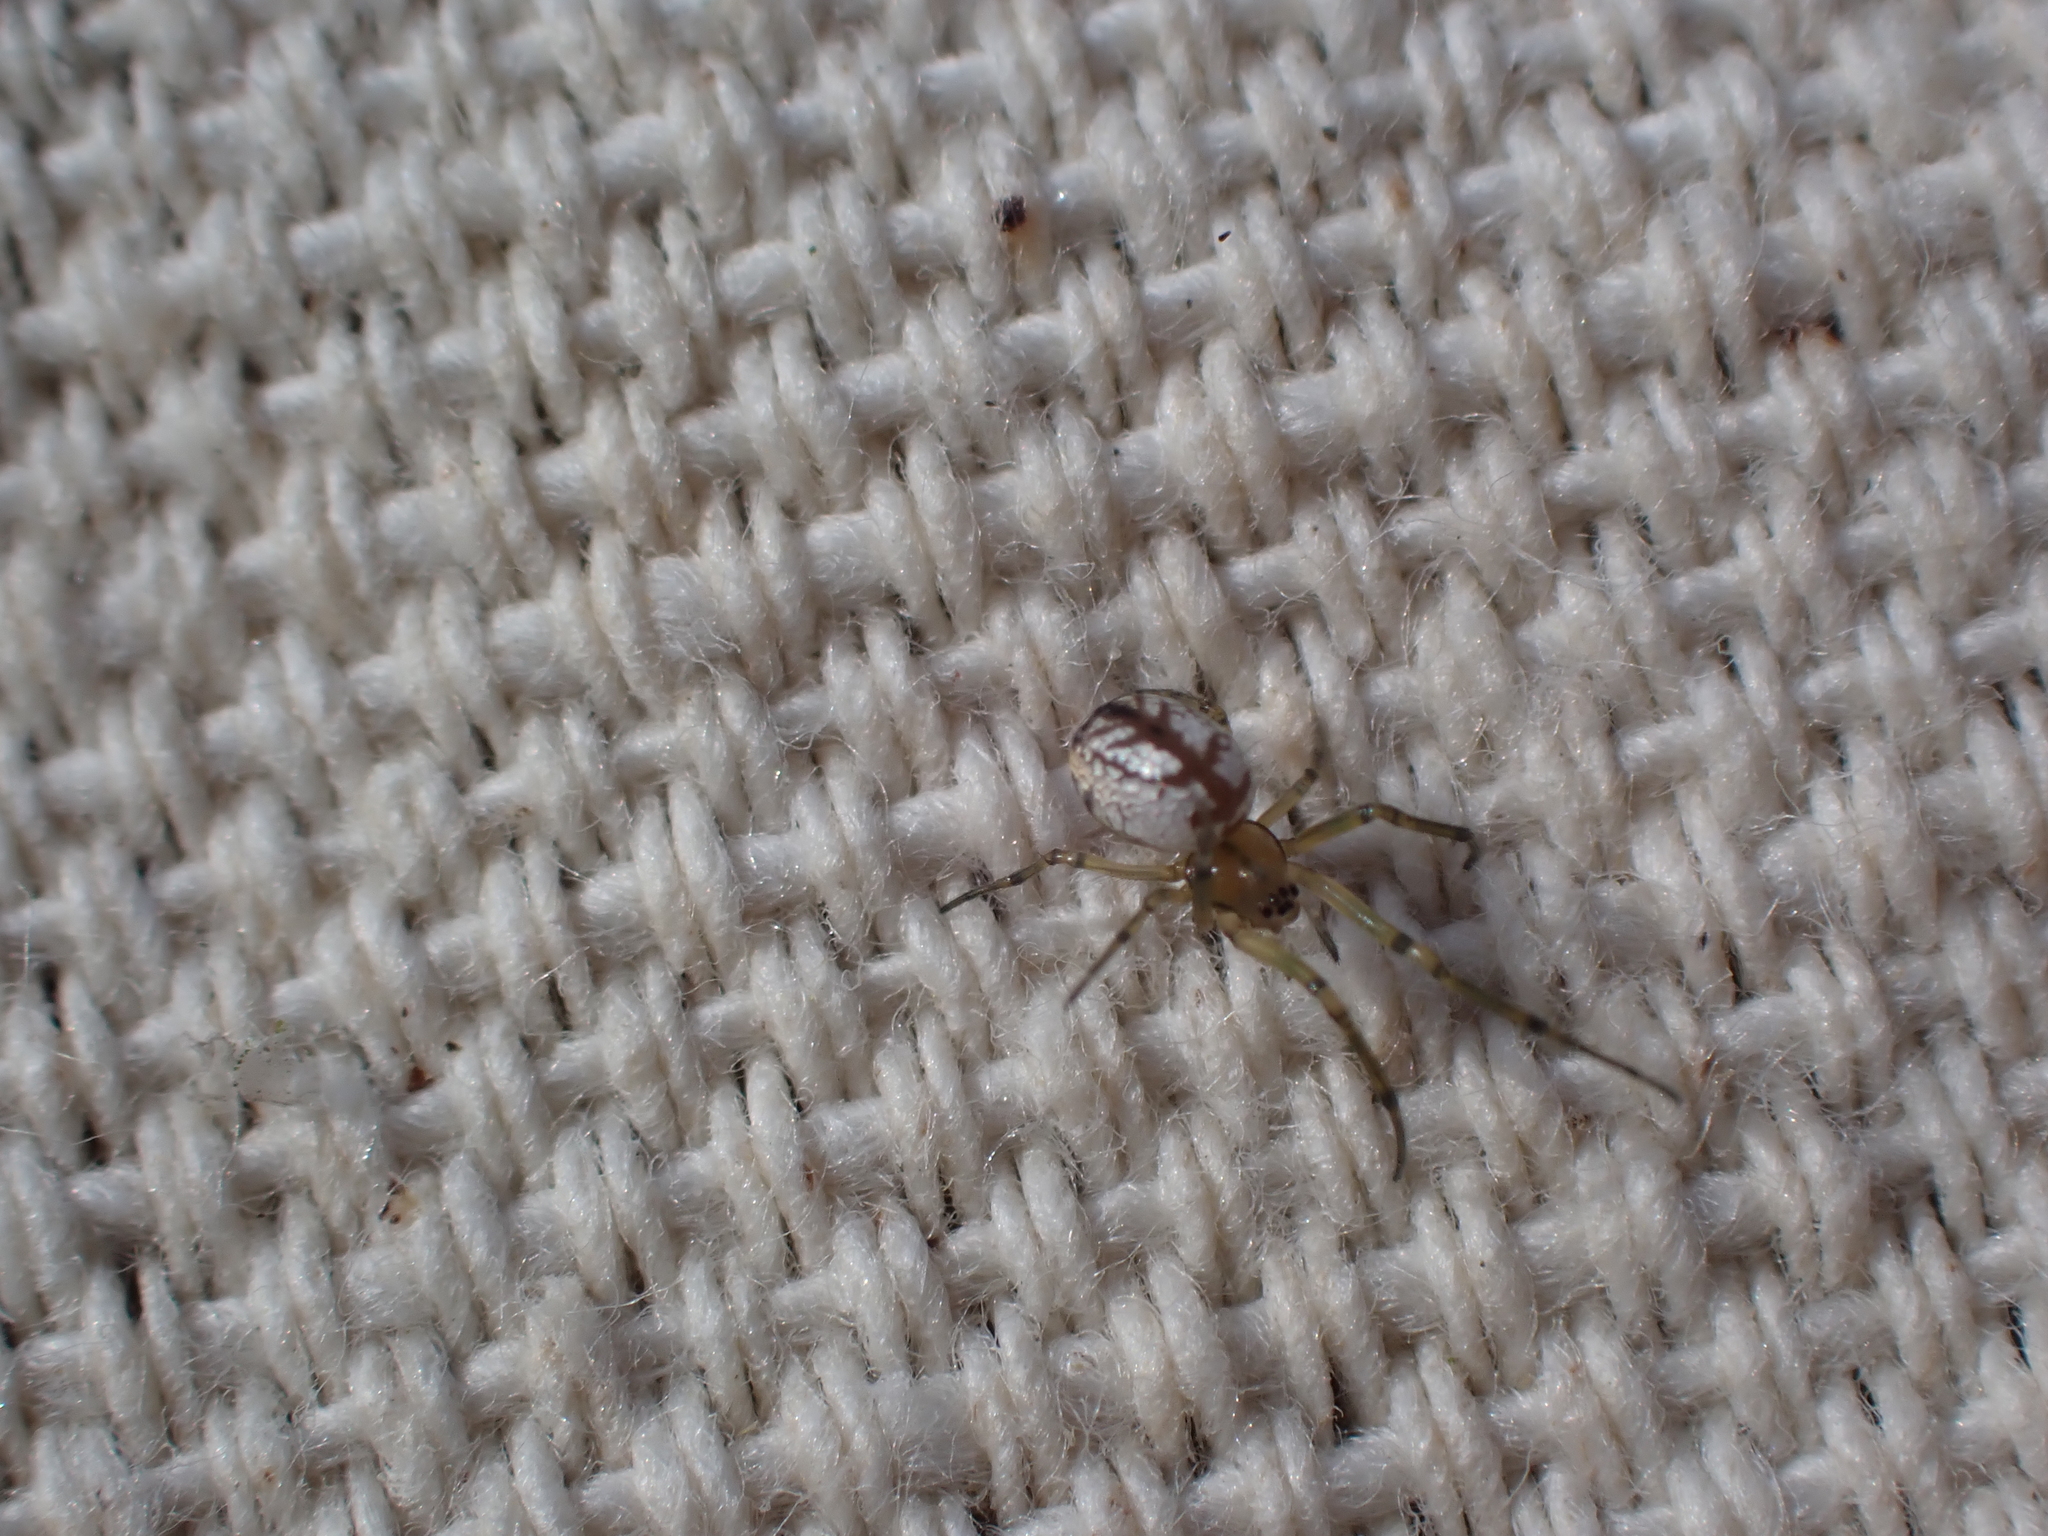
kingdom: Animalia
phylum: Arthropoda
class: Arachnida
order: Araneae
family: Tetragnathidae
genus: Leucauge
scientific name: Leucauge venusta
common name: Longjawed orb weavers
